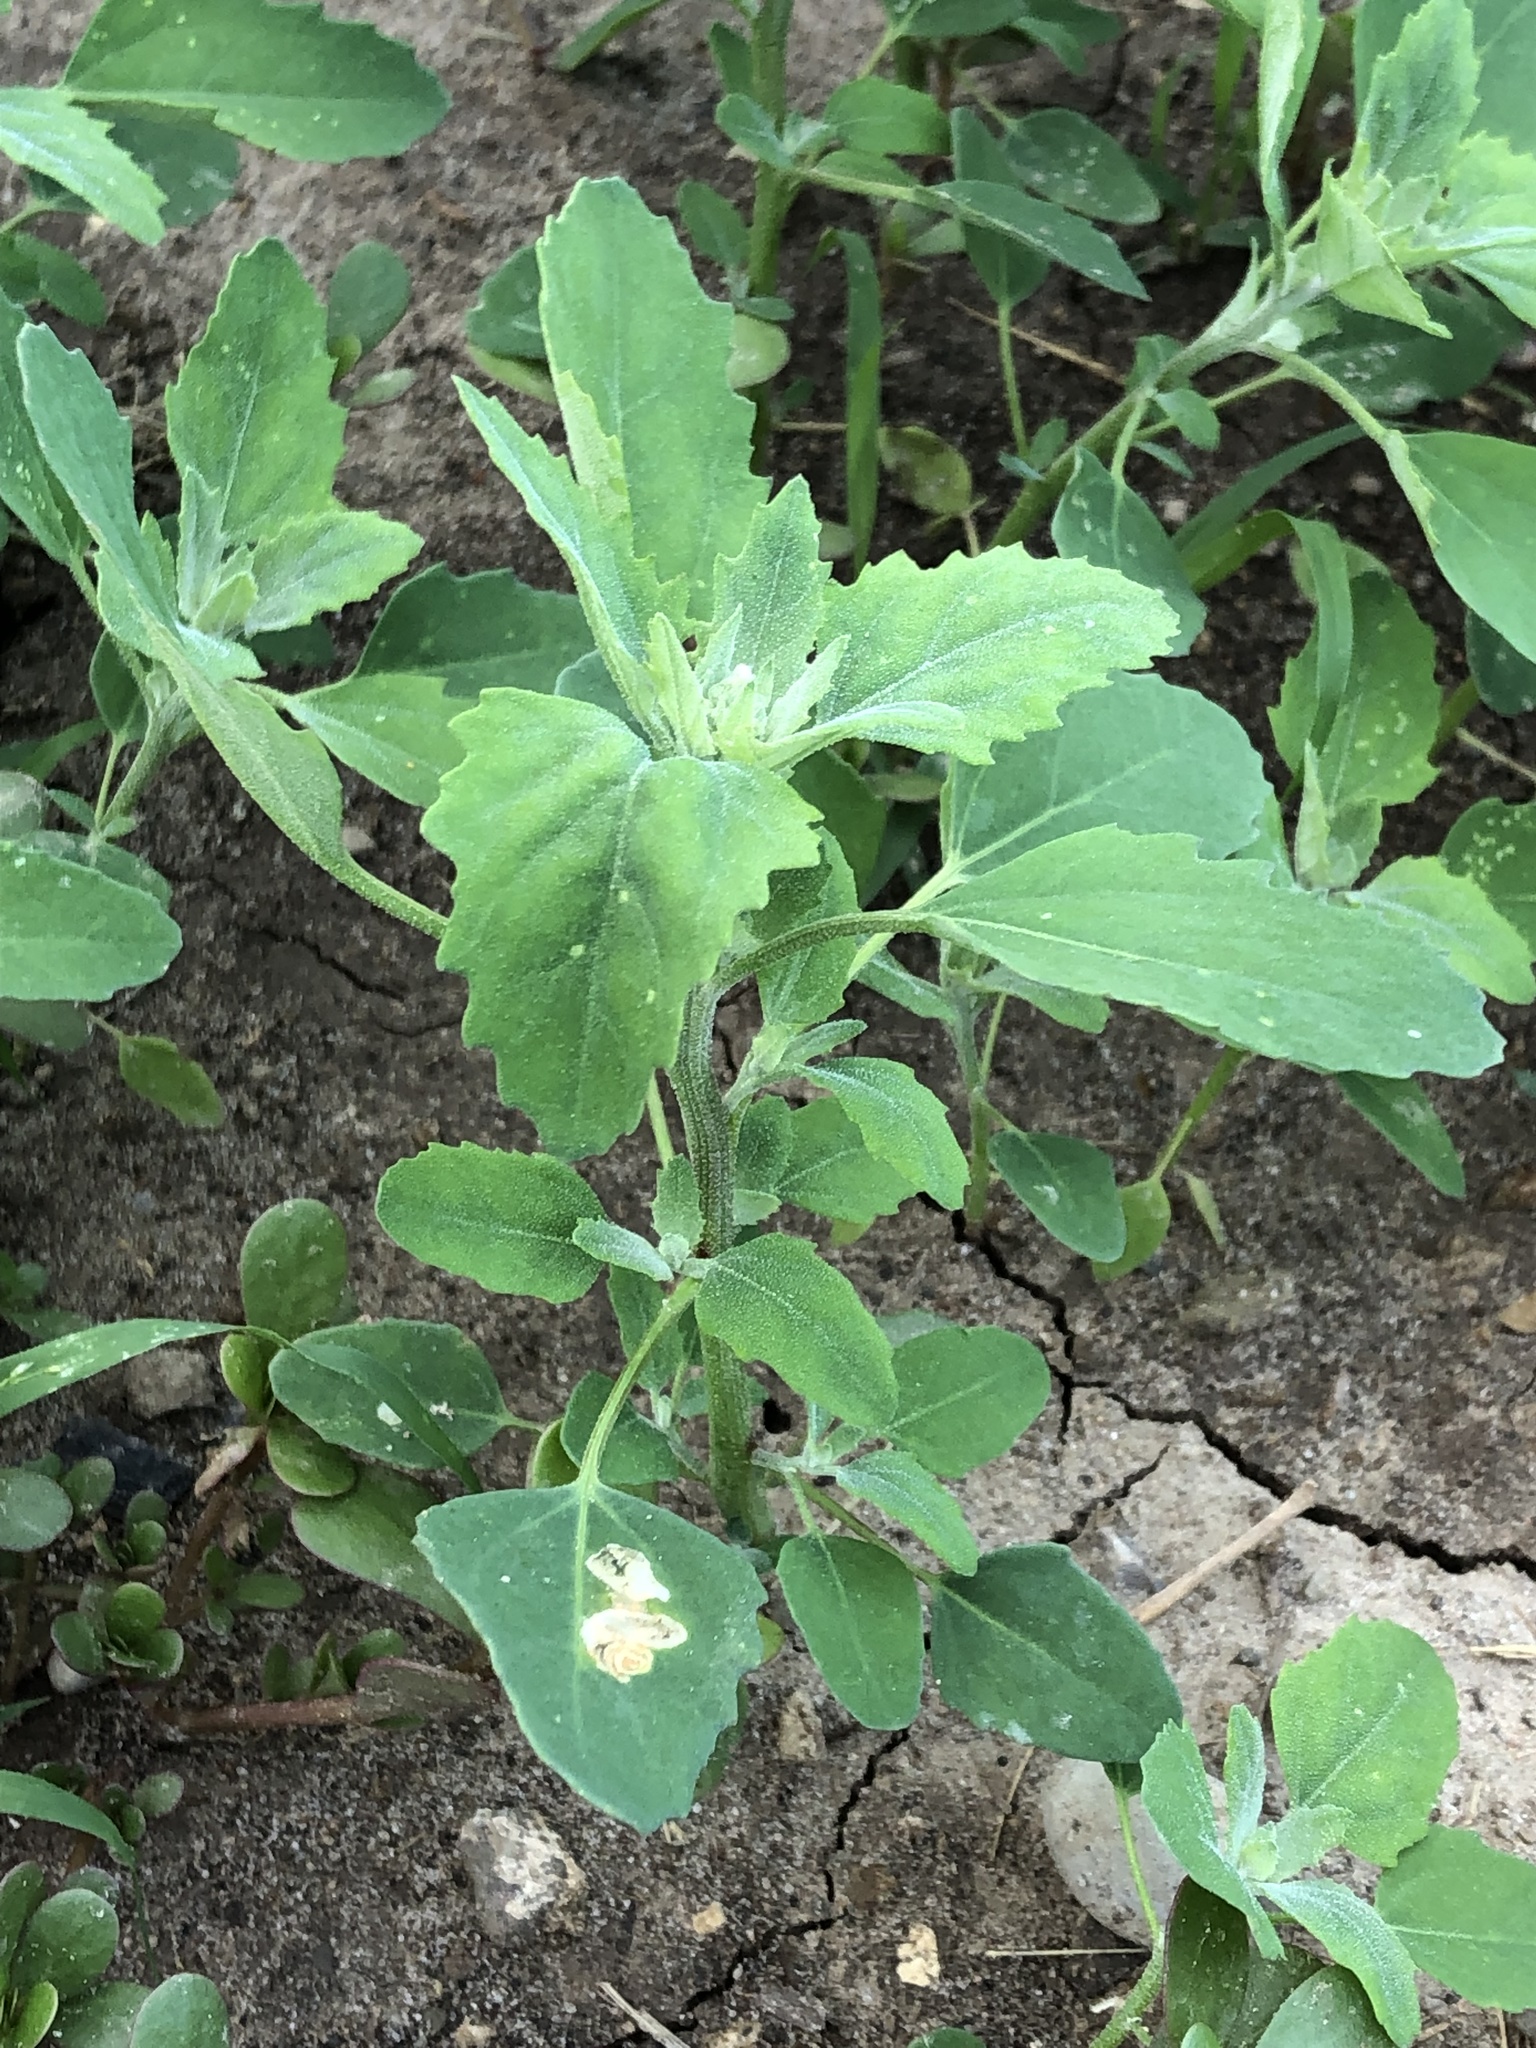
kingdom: Plantae
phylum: Tracheophyta
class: Magnoliopsida
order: Caryophyllales
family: Amaranthaceae
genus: Chenopodium
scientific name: Chenopodium album
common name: Fat-hen
